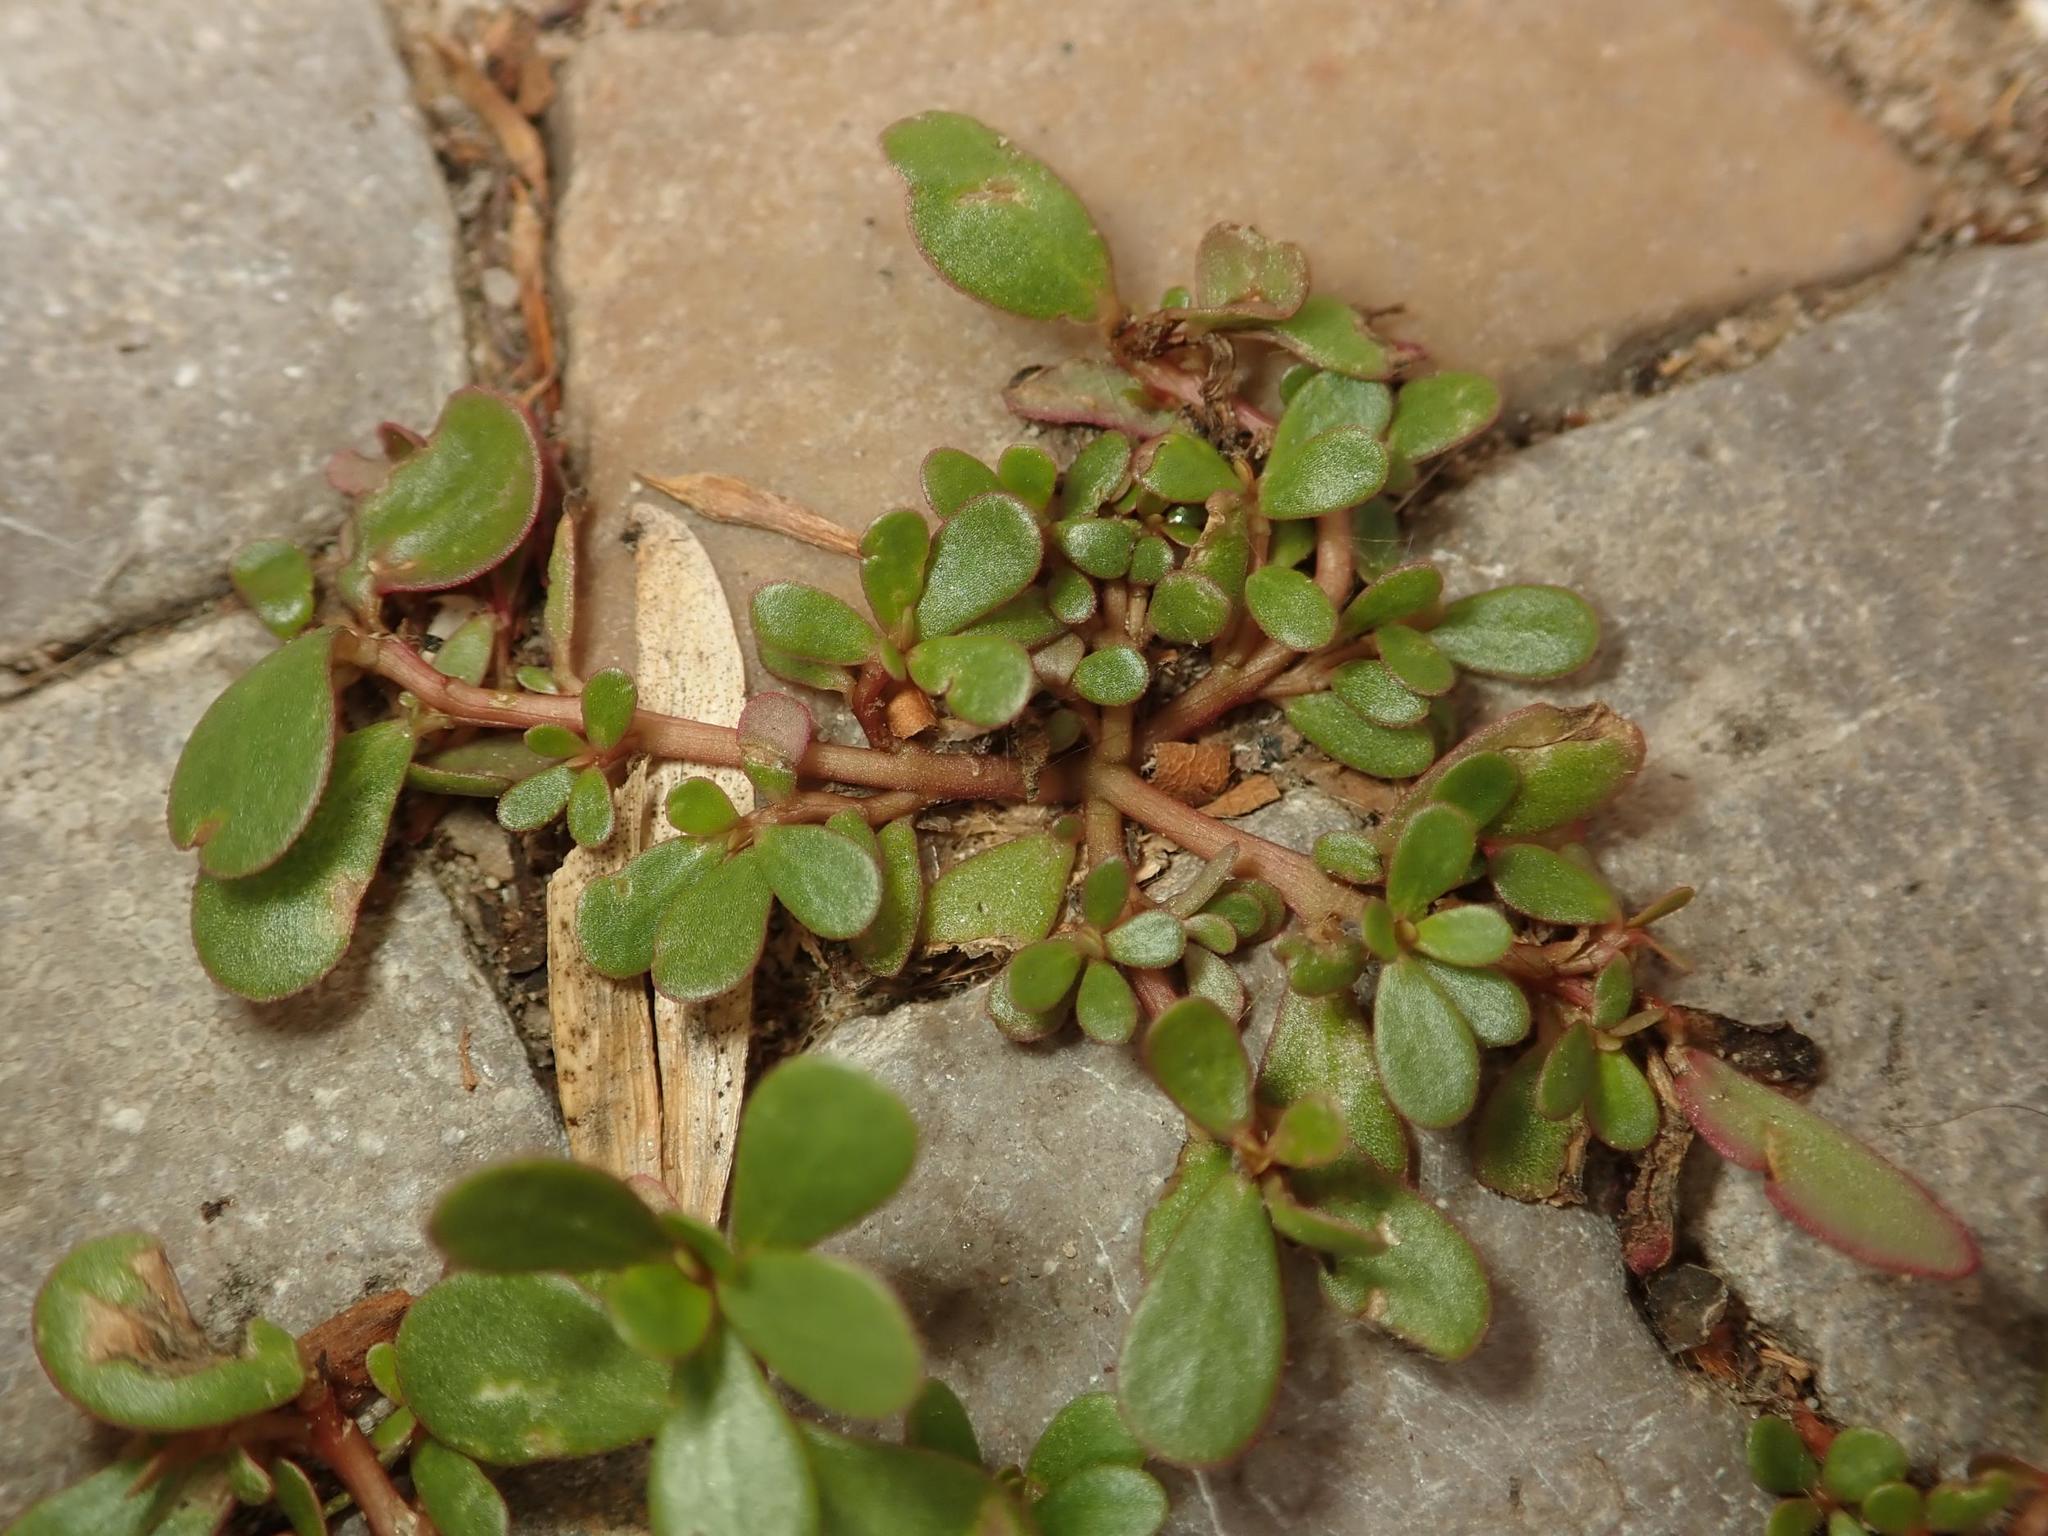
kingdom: Plantae
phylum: Tracheophyta
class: Magnoliopsida
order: Caryophyllales
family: Portulacaceae
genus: Portulaca
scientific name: Portulaca oleracea
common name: Common purslane
